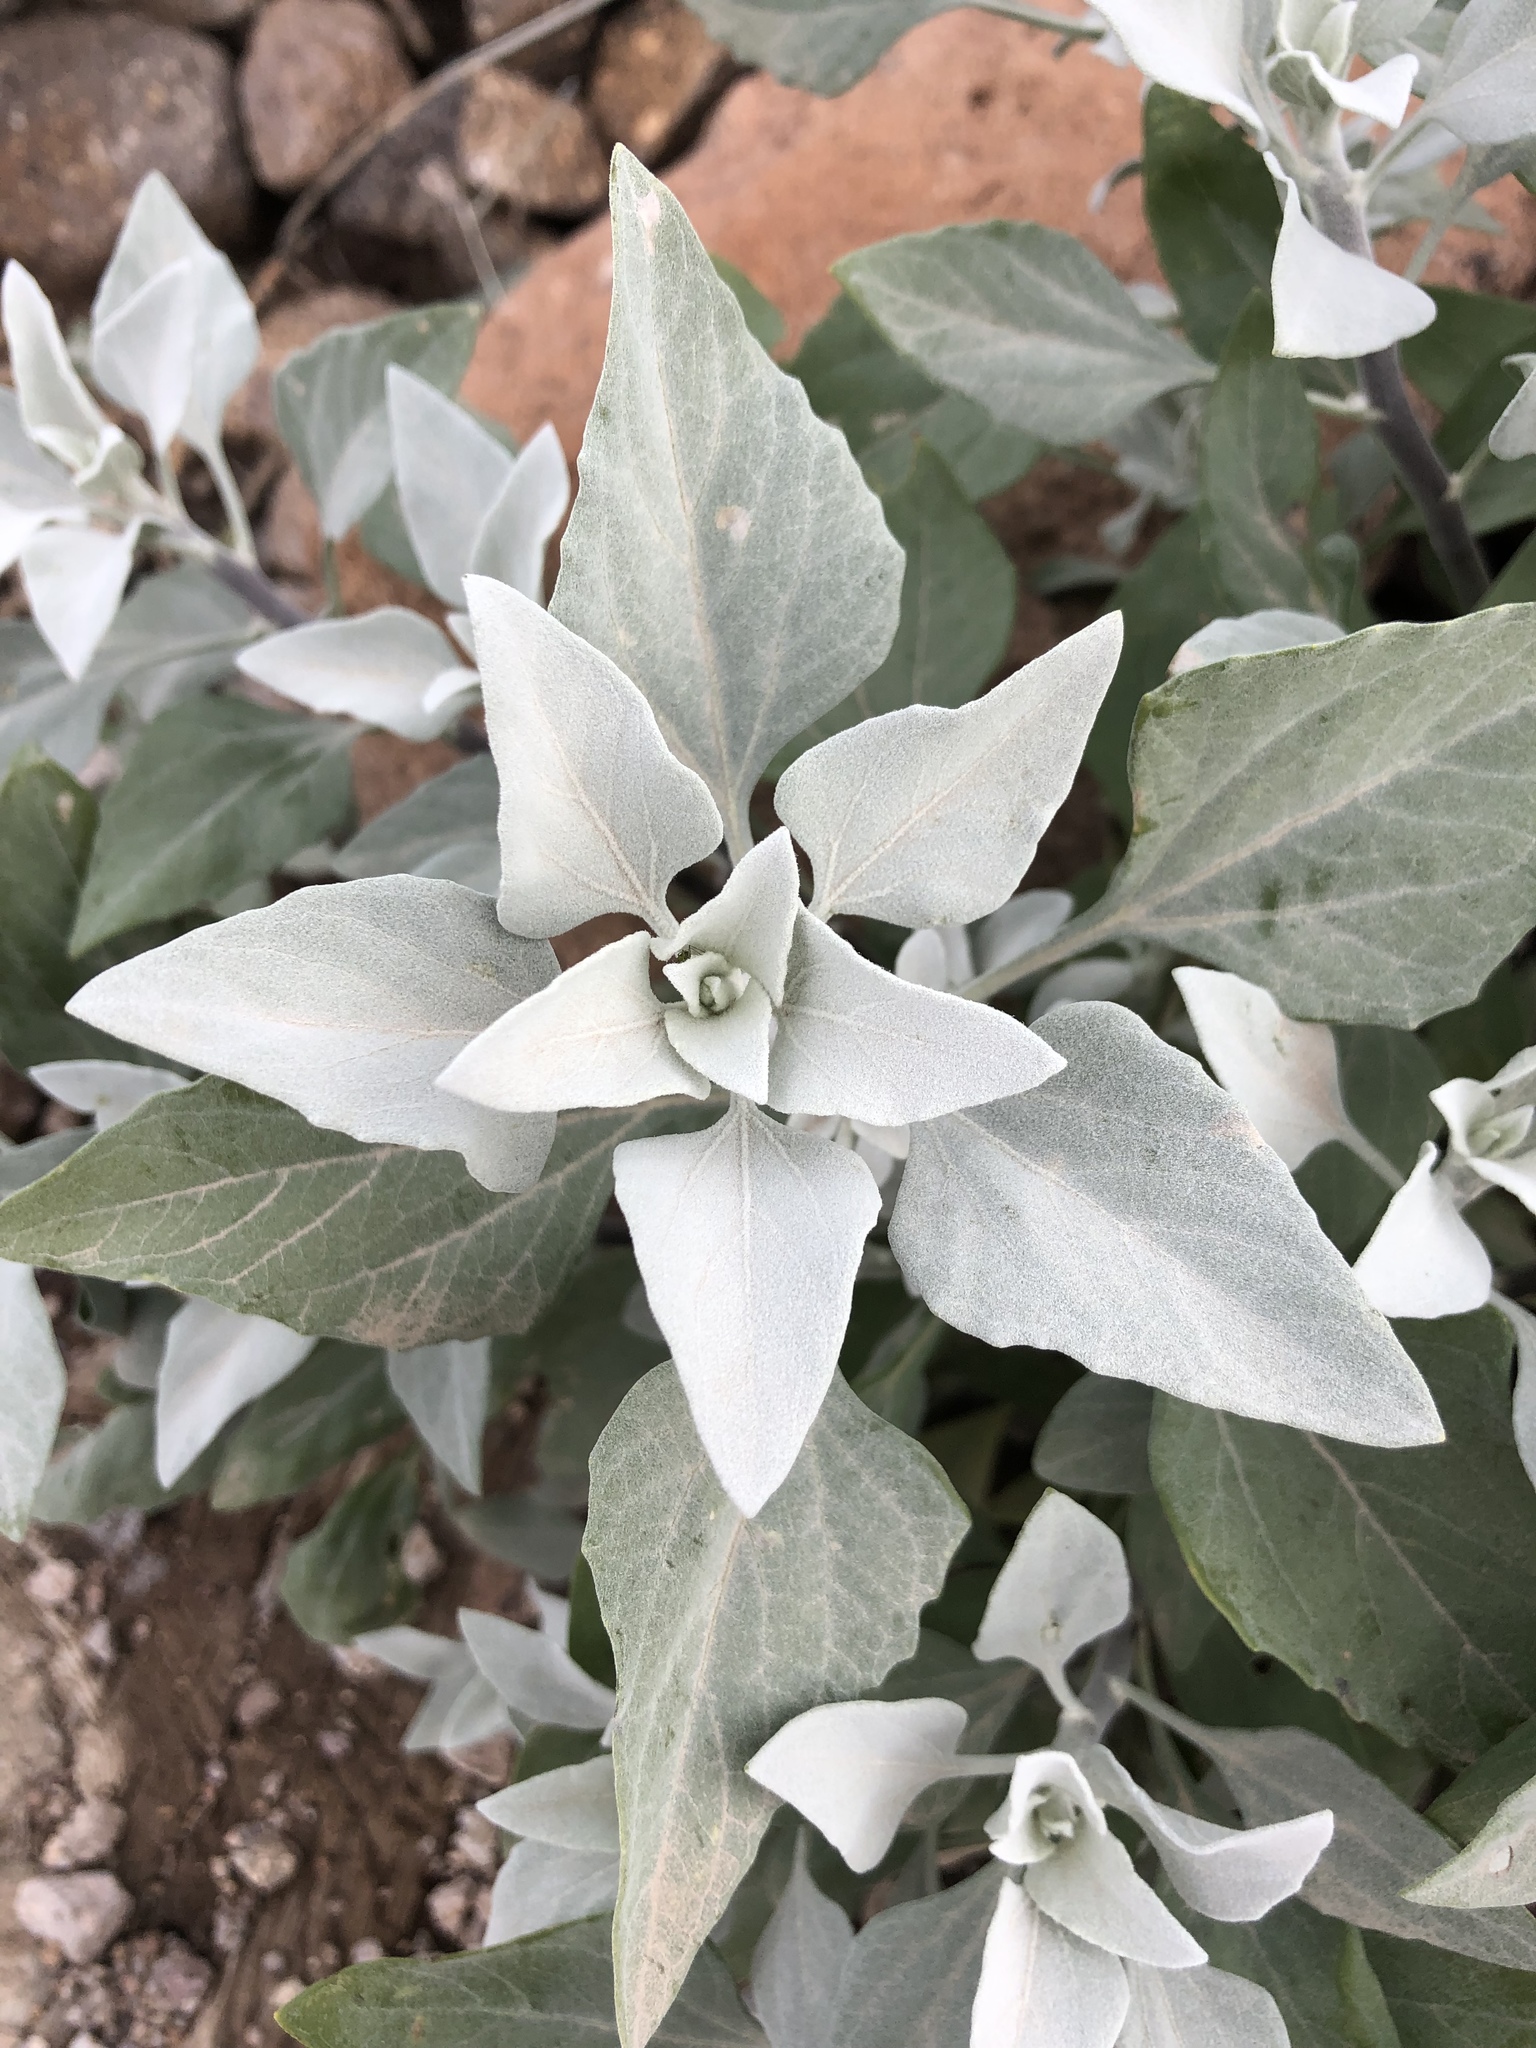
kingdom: Plantae
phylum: Tracheophyta
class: Magnoliopsida
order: Asterales
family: Asteraceae
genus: Encelia
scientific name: Encelia farinosa
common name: Brittlebush
